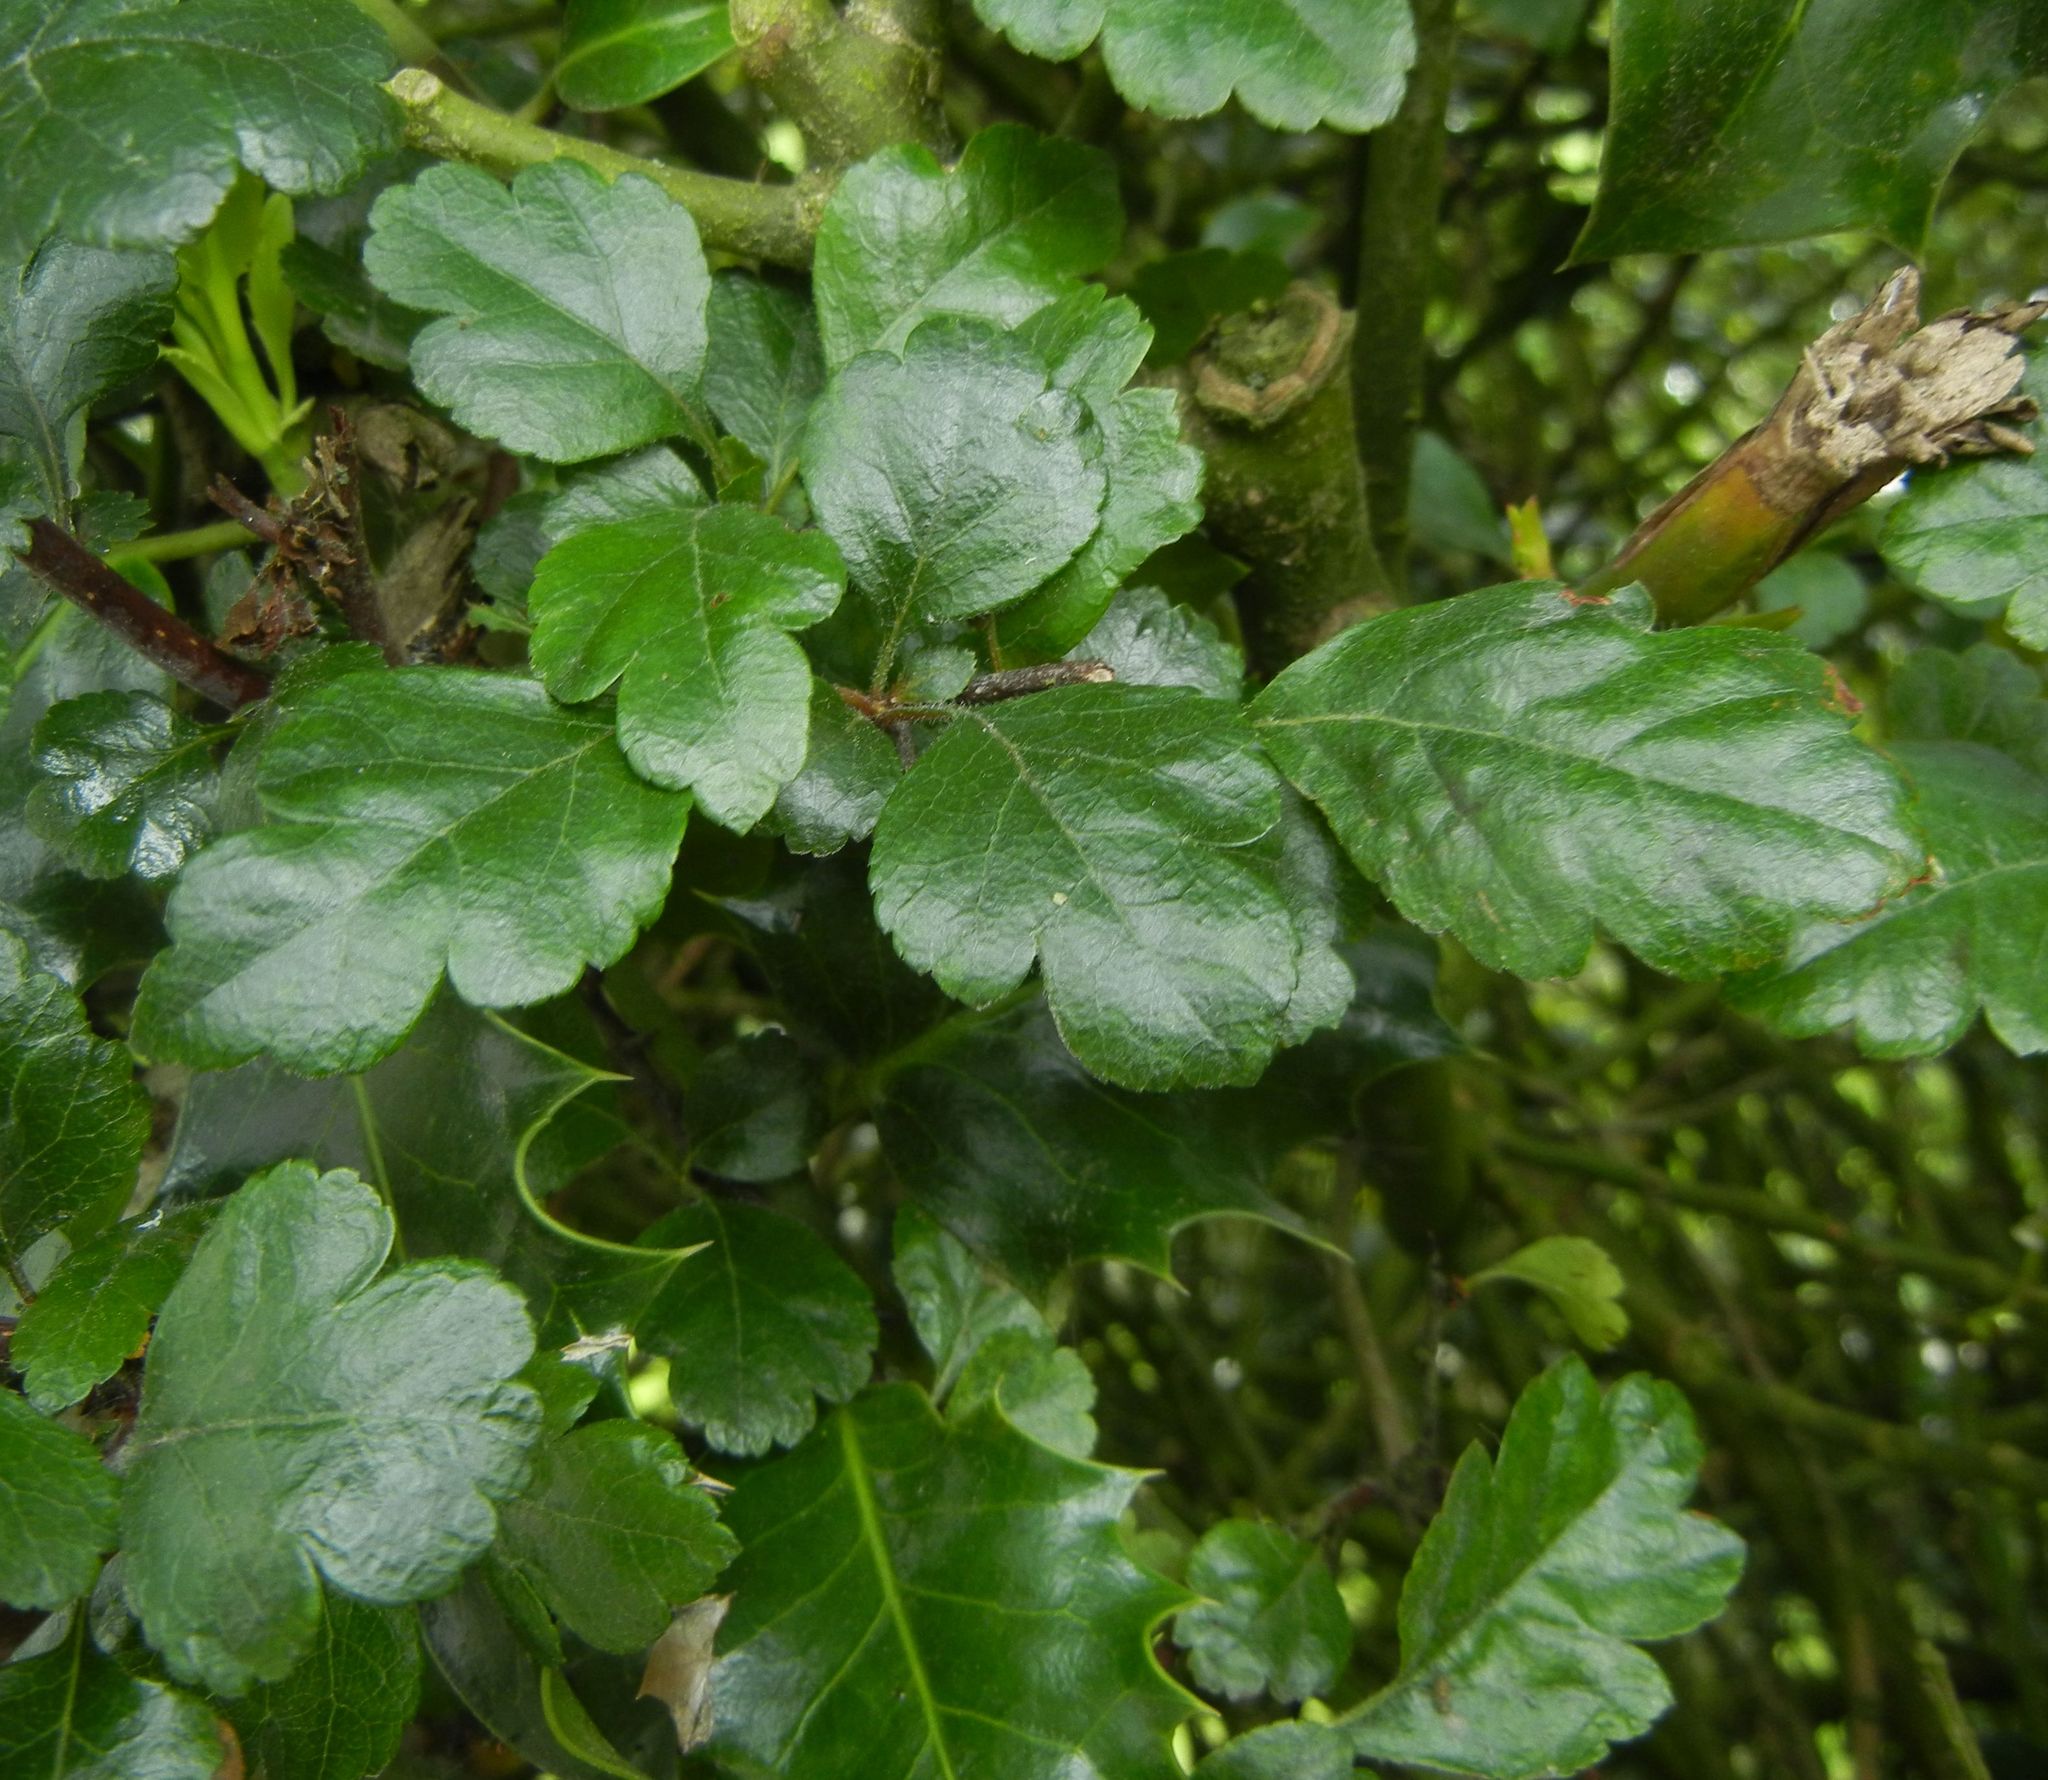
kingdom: Plantae
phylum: Tracheophyta
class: Magnoliopsida
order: Rosales
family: Rosaceae
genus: Crataegus
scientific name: Crataegus laevigata
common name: Midland hawthorn
